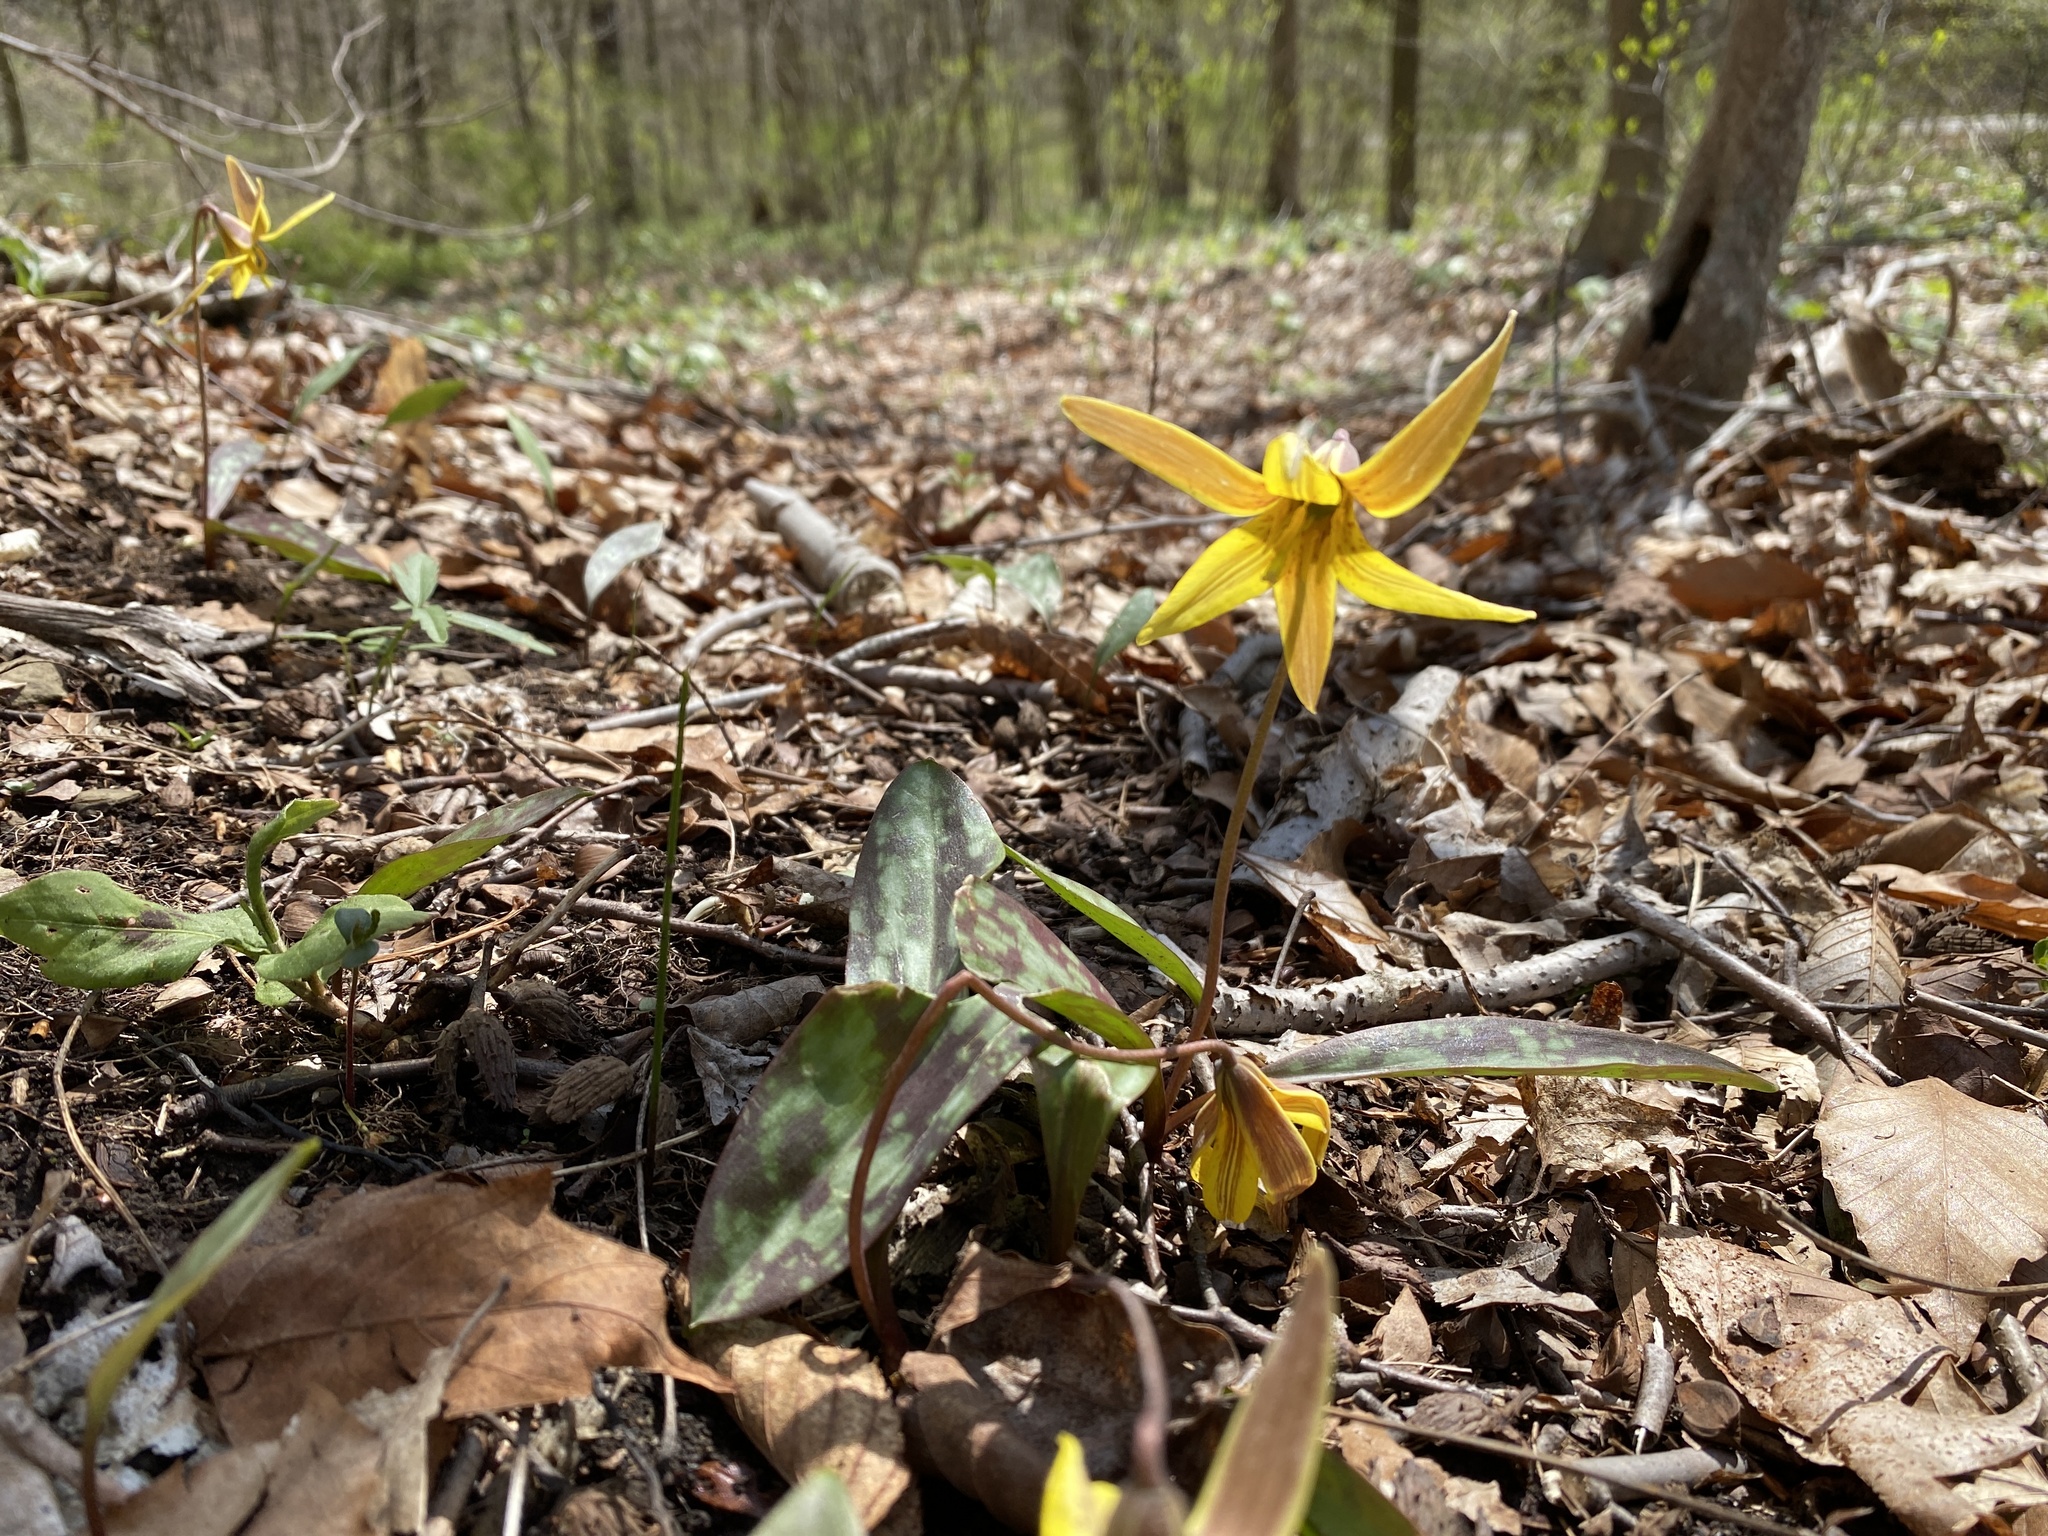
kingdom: Plantae
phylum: Tracheophyta
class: Liliopsida
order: Liliales
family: Liliaceae
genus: Erythronium
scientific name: Erythronium americanum
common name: Yellow adder's-tongue
